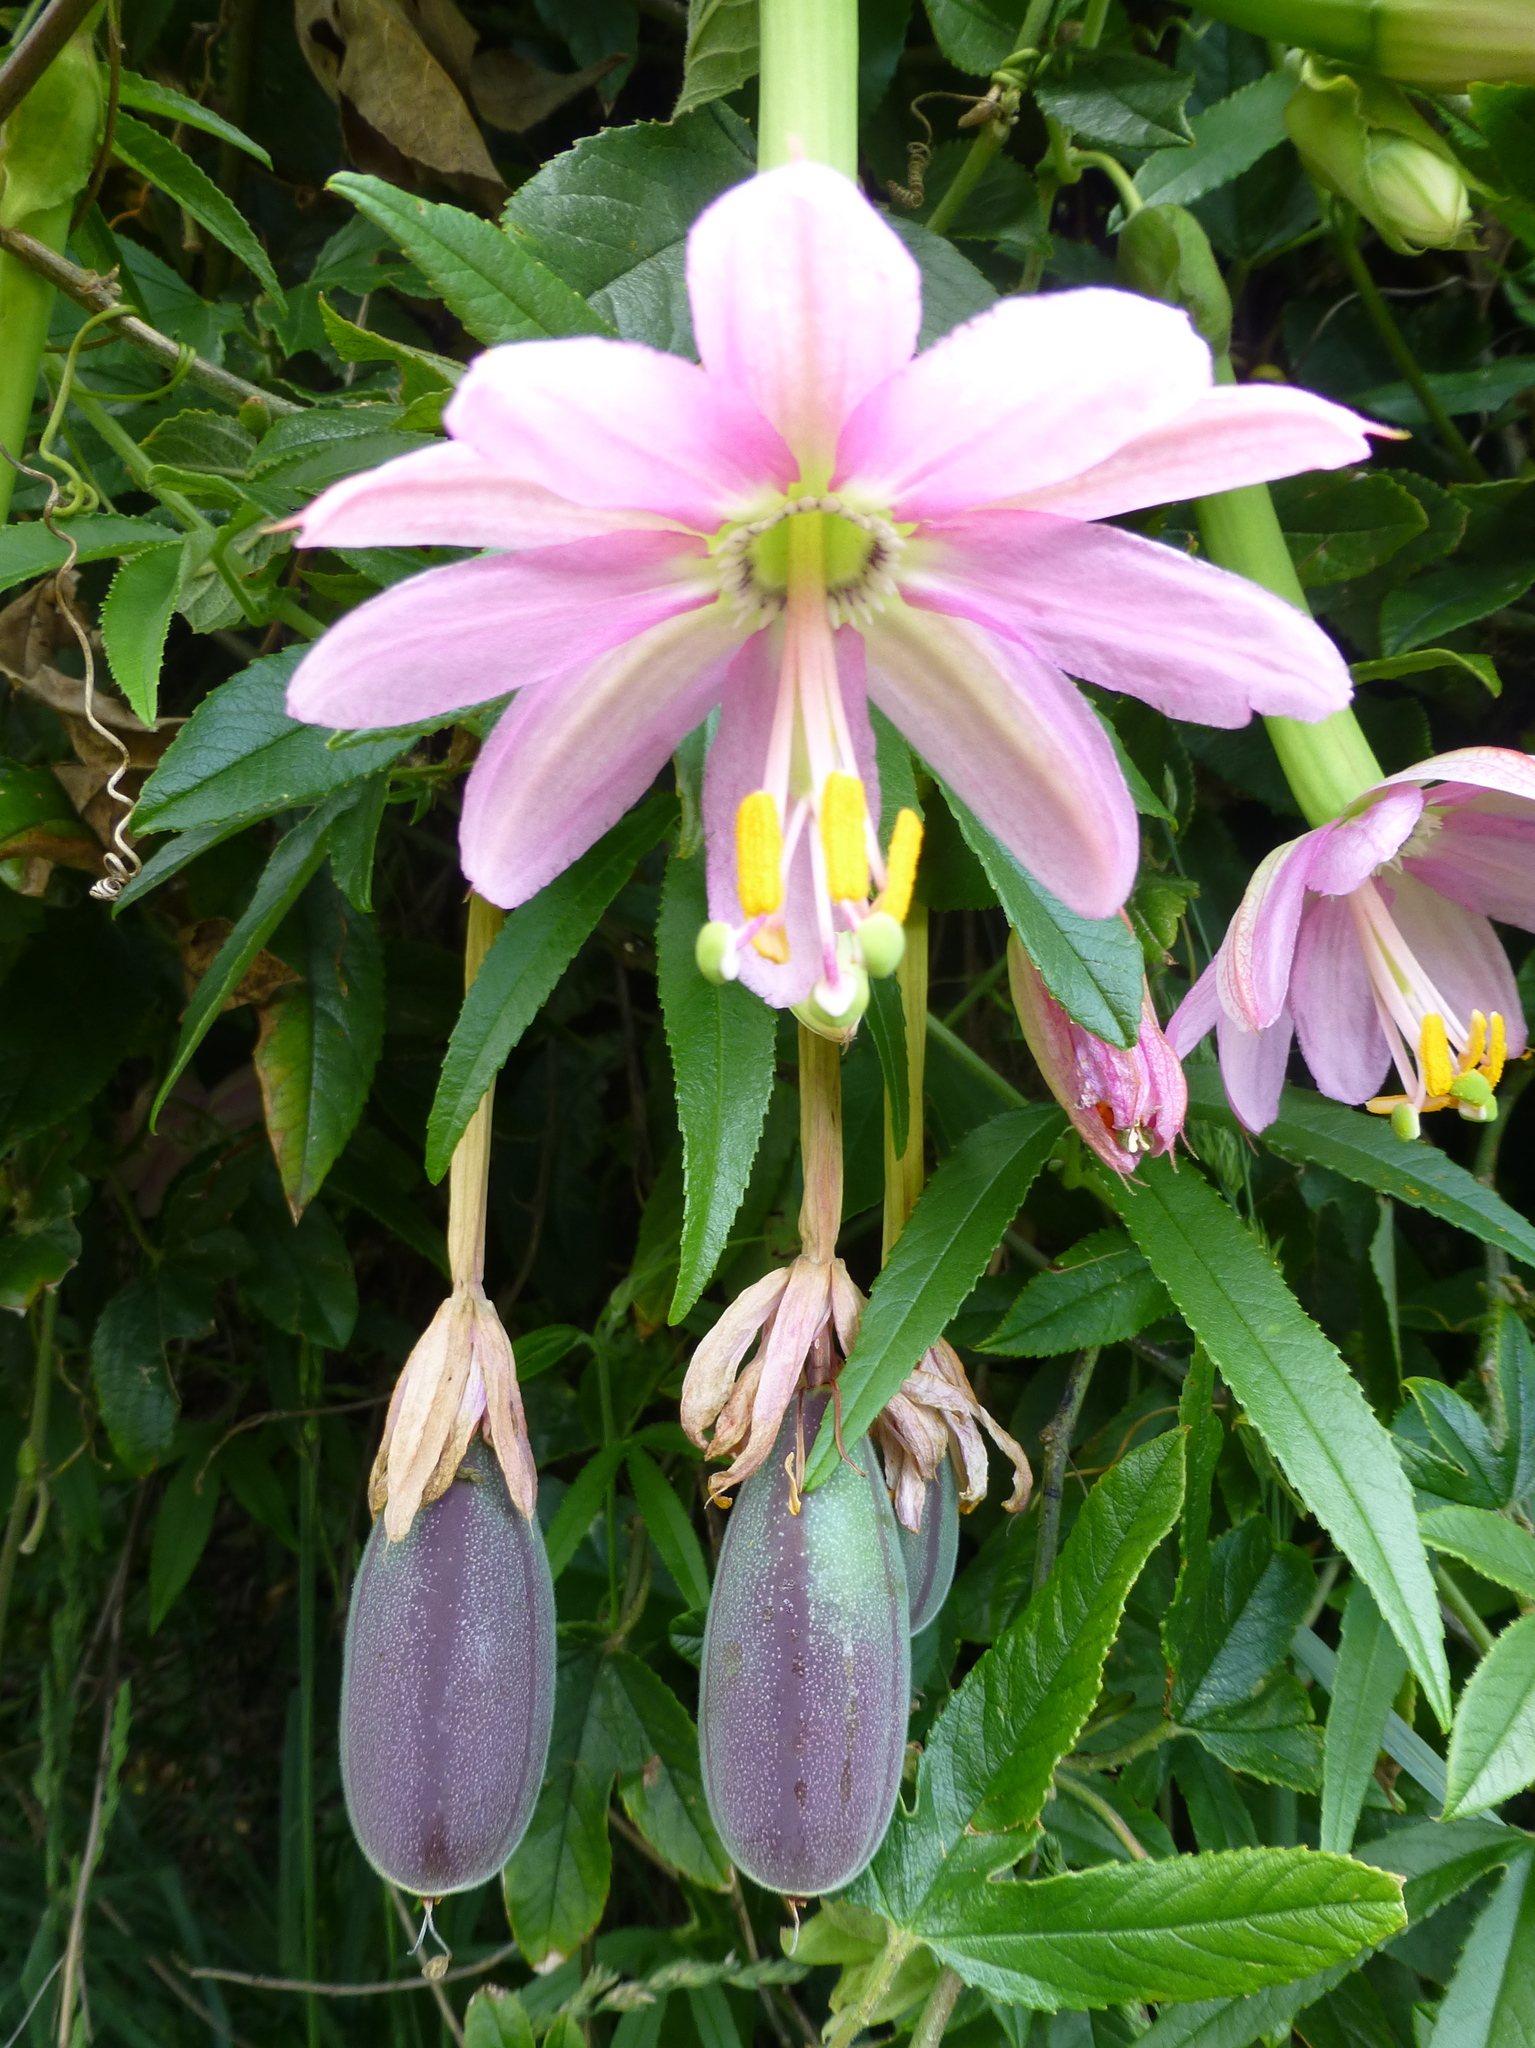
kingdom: Plantae
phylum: Tracheophyta
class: Magnoliopsida
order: Malpighiales
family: Passifloraceae
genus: Passiflora
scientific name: Passiflora tripartita
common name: Banana poka
